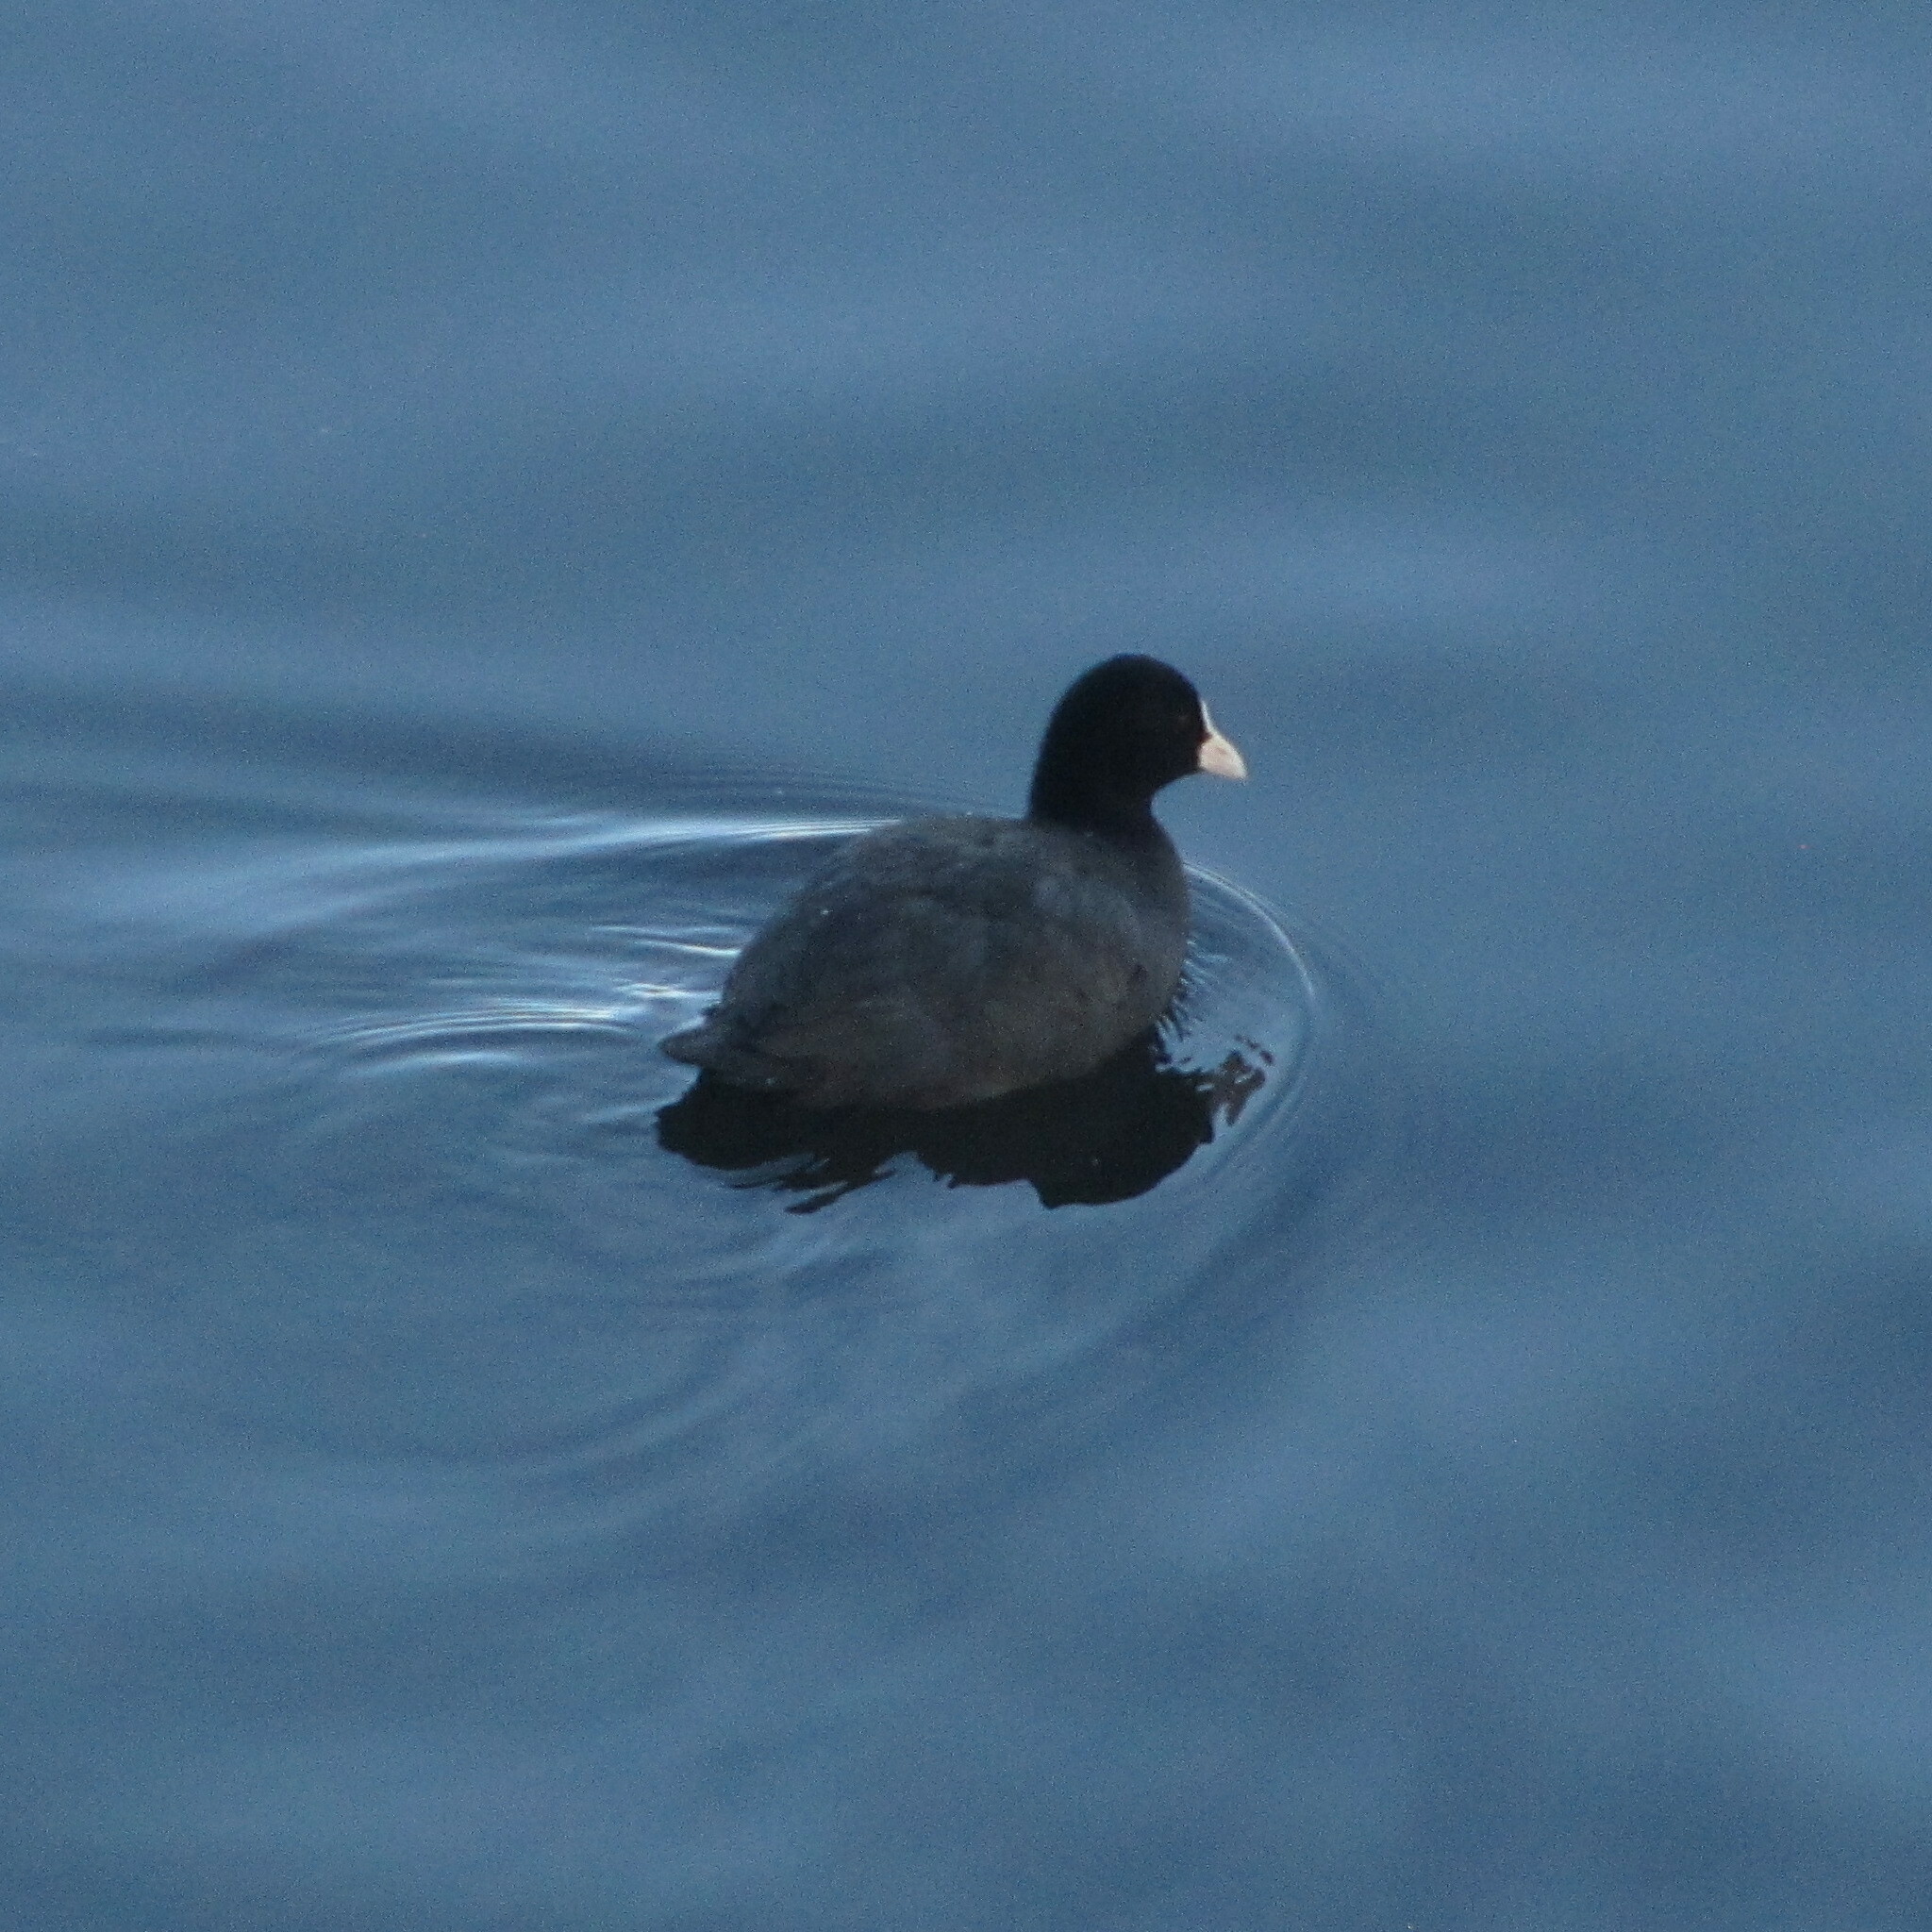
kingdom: Animalia
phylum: Chordata
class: Aves
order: Gruiformes
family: Rallidae
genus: Fulica
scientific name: Fulica atra
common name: Eurasian coot
